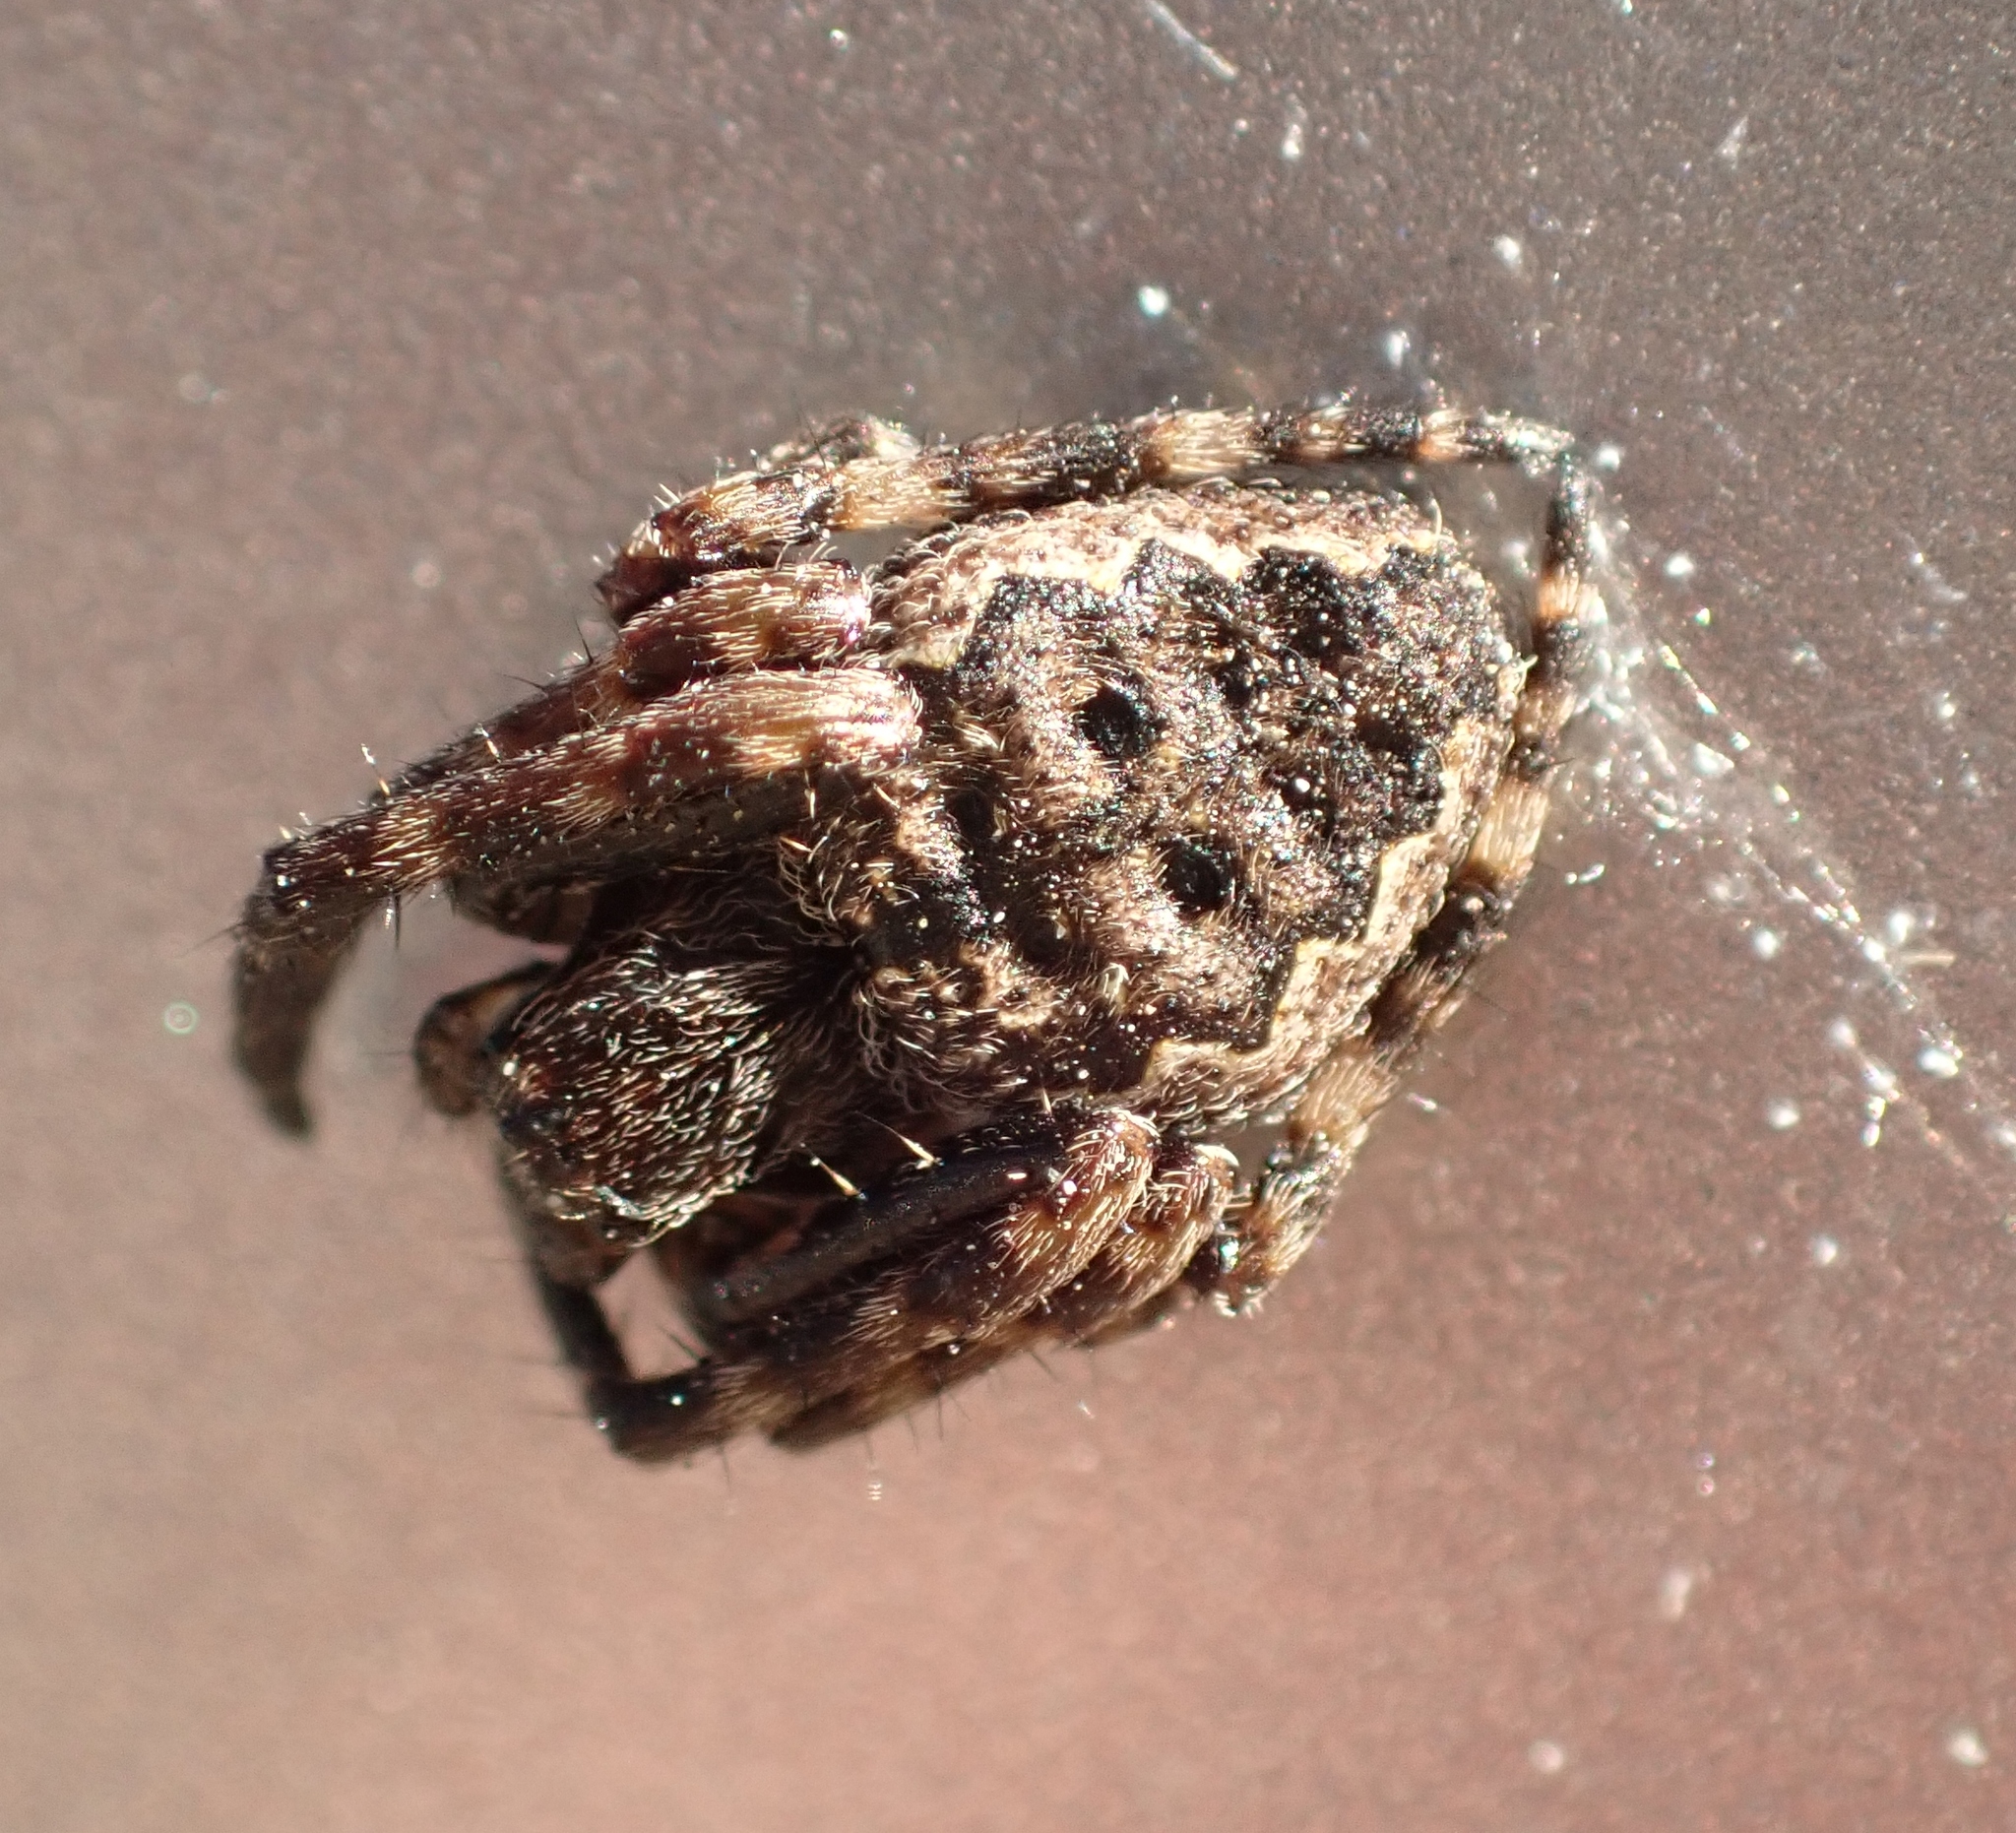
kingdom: Animalia
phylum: Arthropoda
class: Arachnida
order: Araneae
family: Araneidae
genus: Nuctenea
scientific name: Nuctenea umbratica
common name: Toad spider
